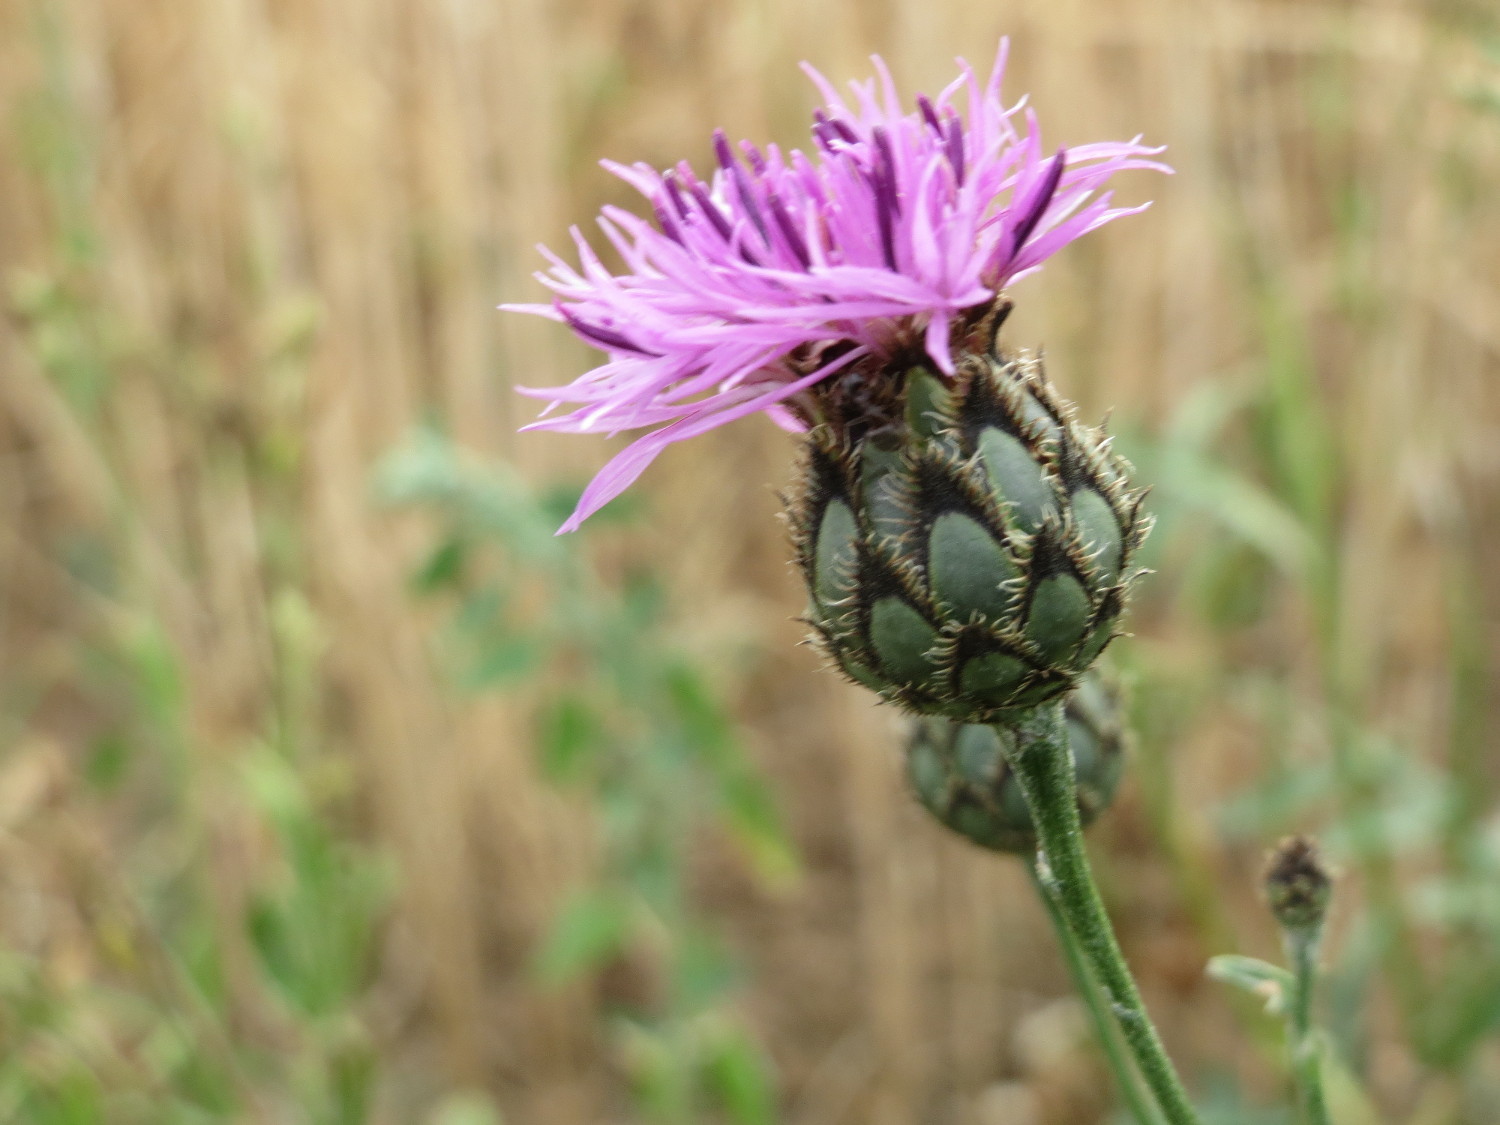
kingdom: Plantae
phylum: Tracheophyta
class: Magnoliopsida
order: Asterales
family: Asteraceae
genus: Centaurea
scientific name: Centaurea scabiosa
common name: Greater knapweed
